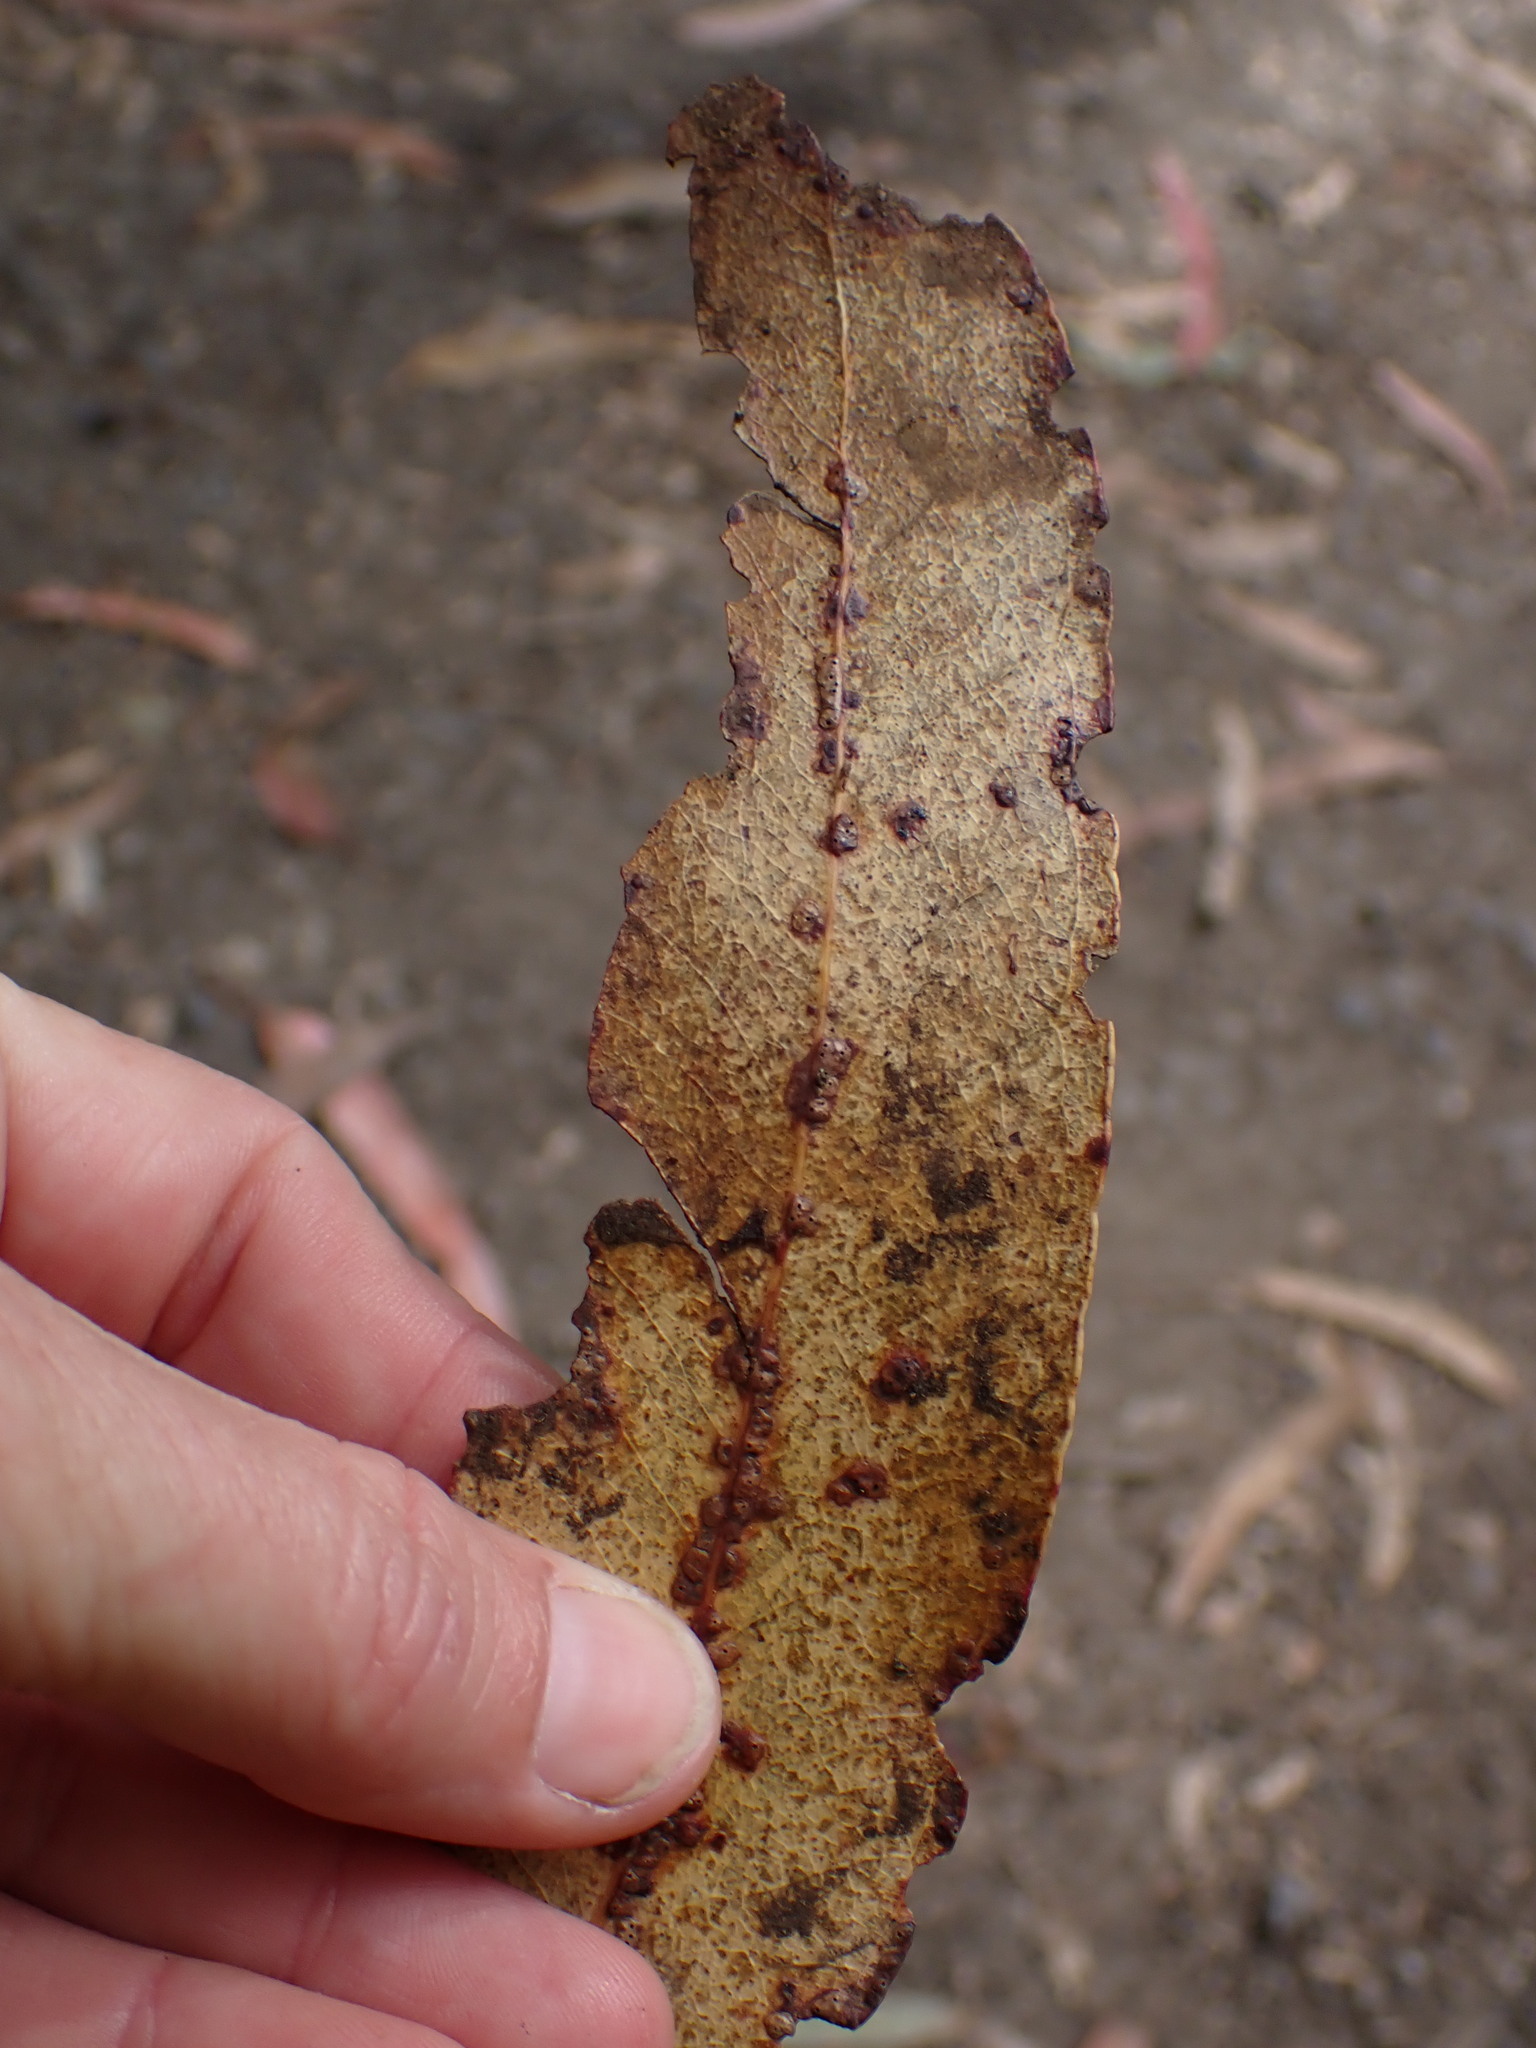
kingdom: Animalia
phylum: Arthropoda
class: Insecta
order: Hymenoptera
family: Eulophidae
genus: Ophelimus
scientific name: Ophelimus maskelli
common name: Gall wasp
